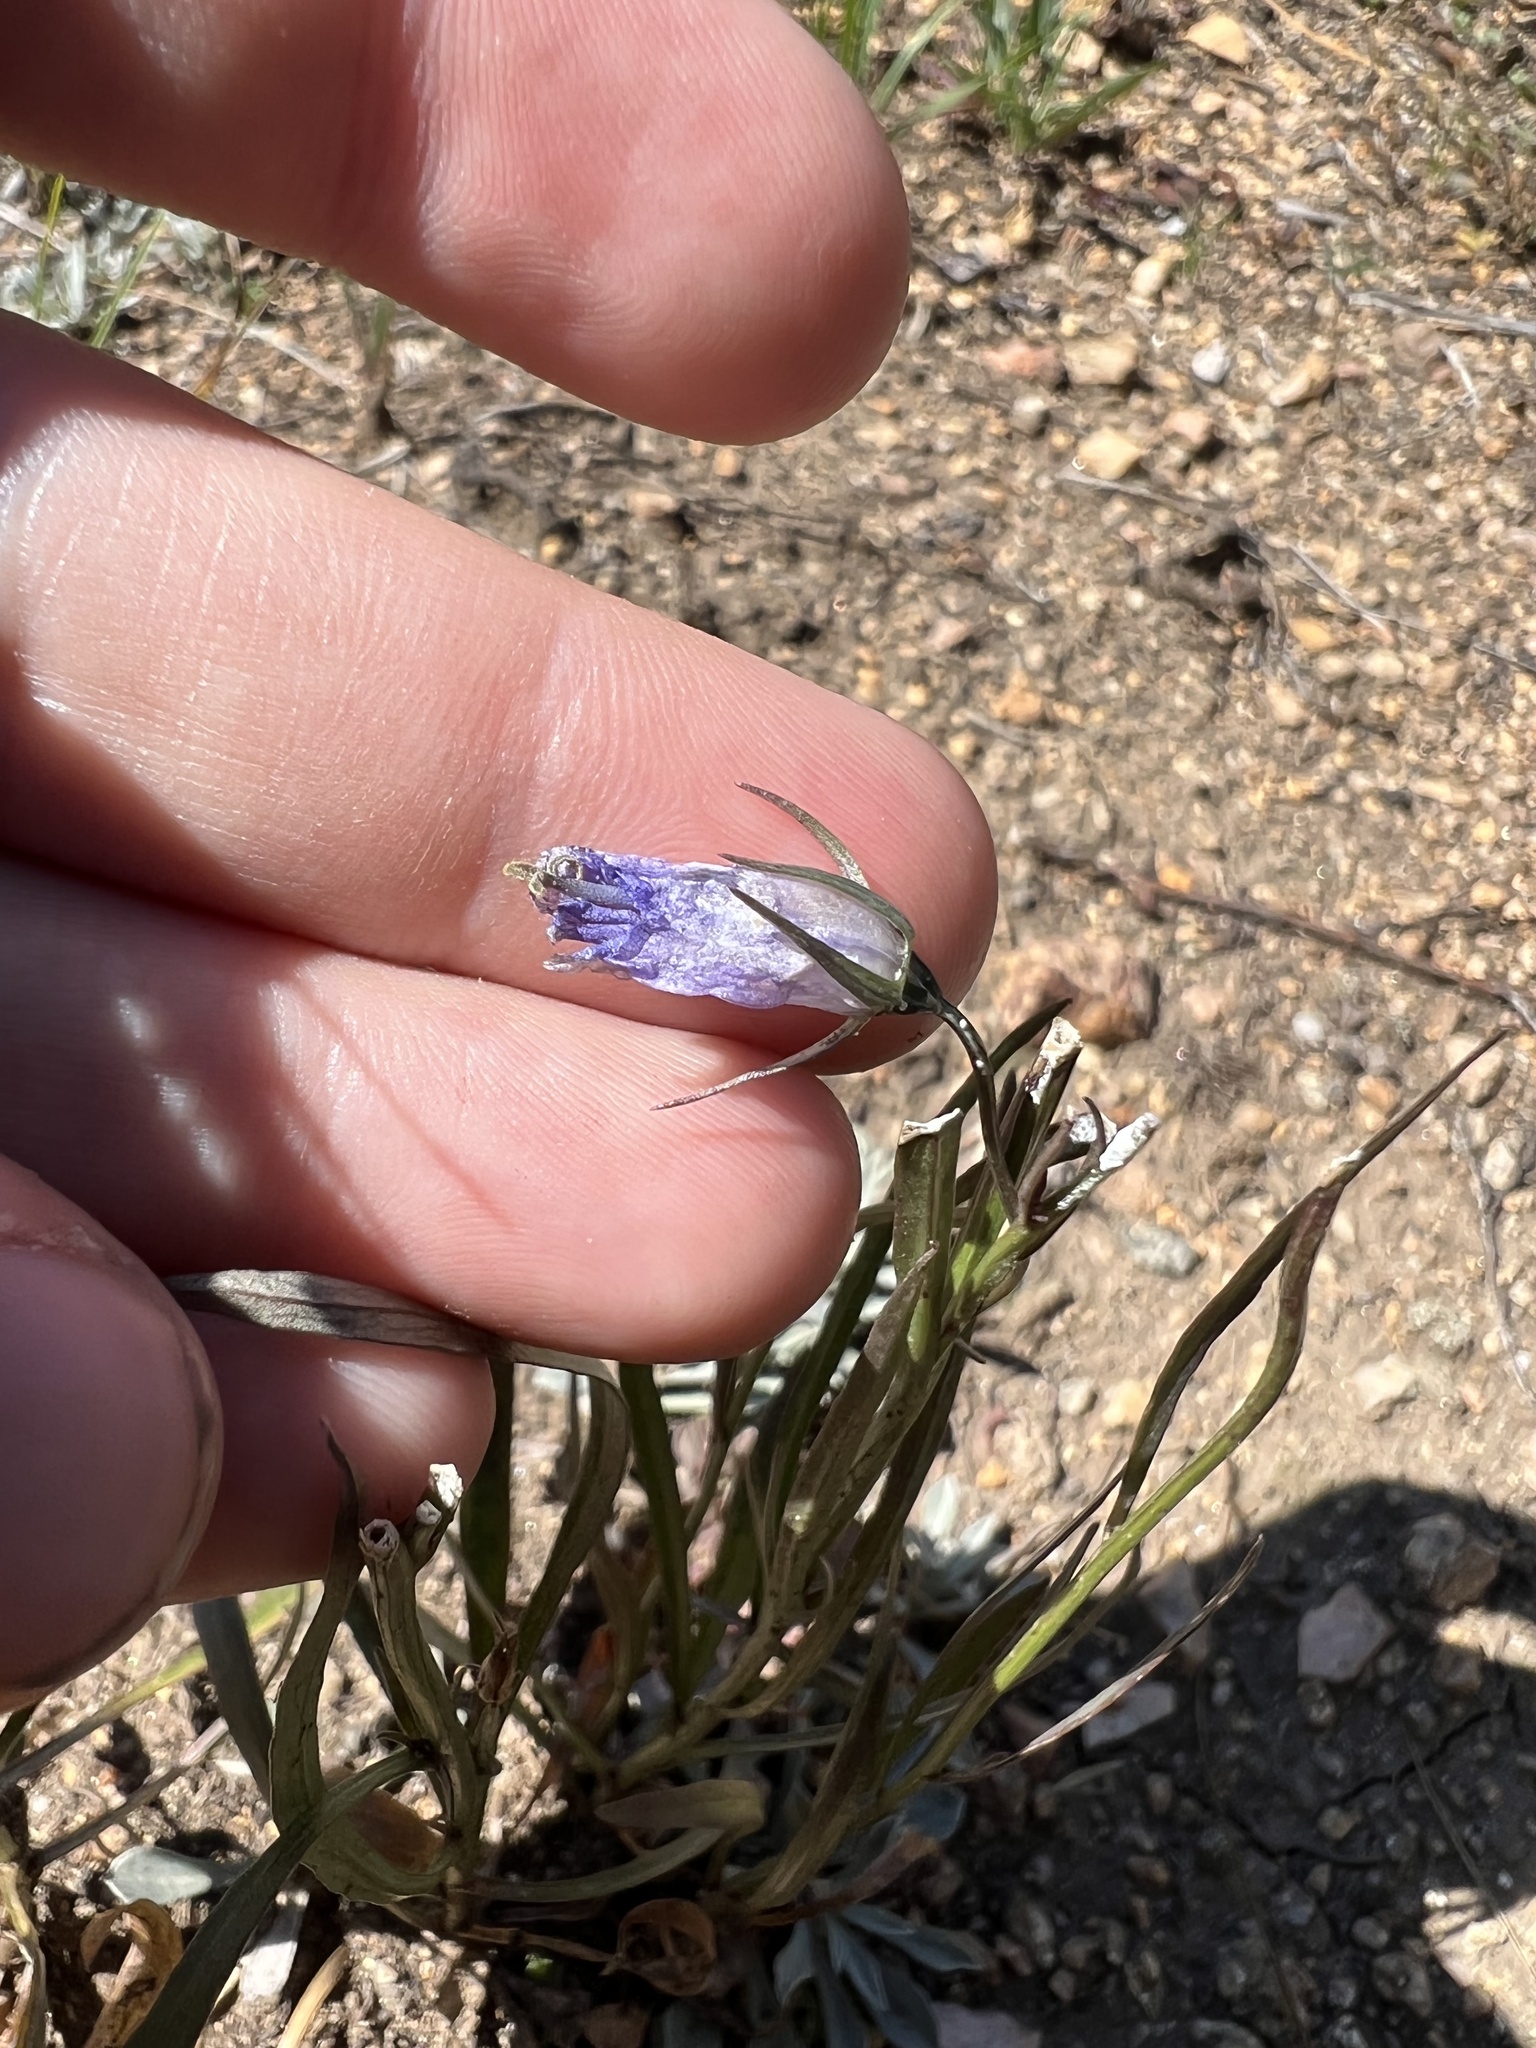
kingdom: Plantae
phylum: Tracheophyta
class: Magnoliopsida
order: Asterales
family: Campanulaceae
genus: Campanula
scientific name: Campanula petiolata
